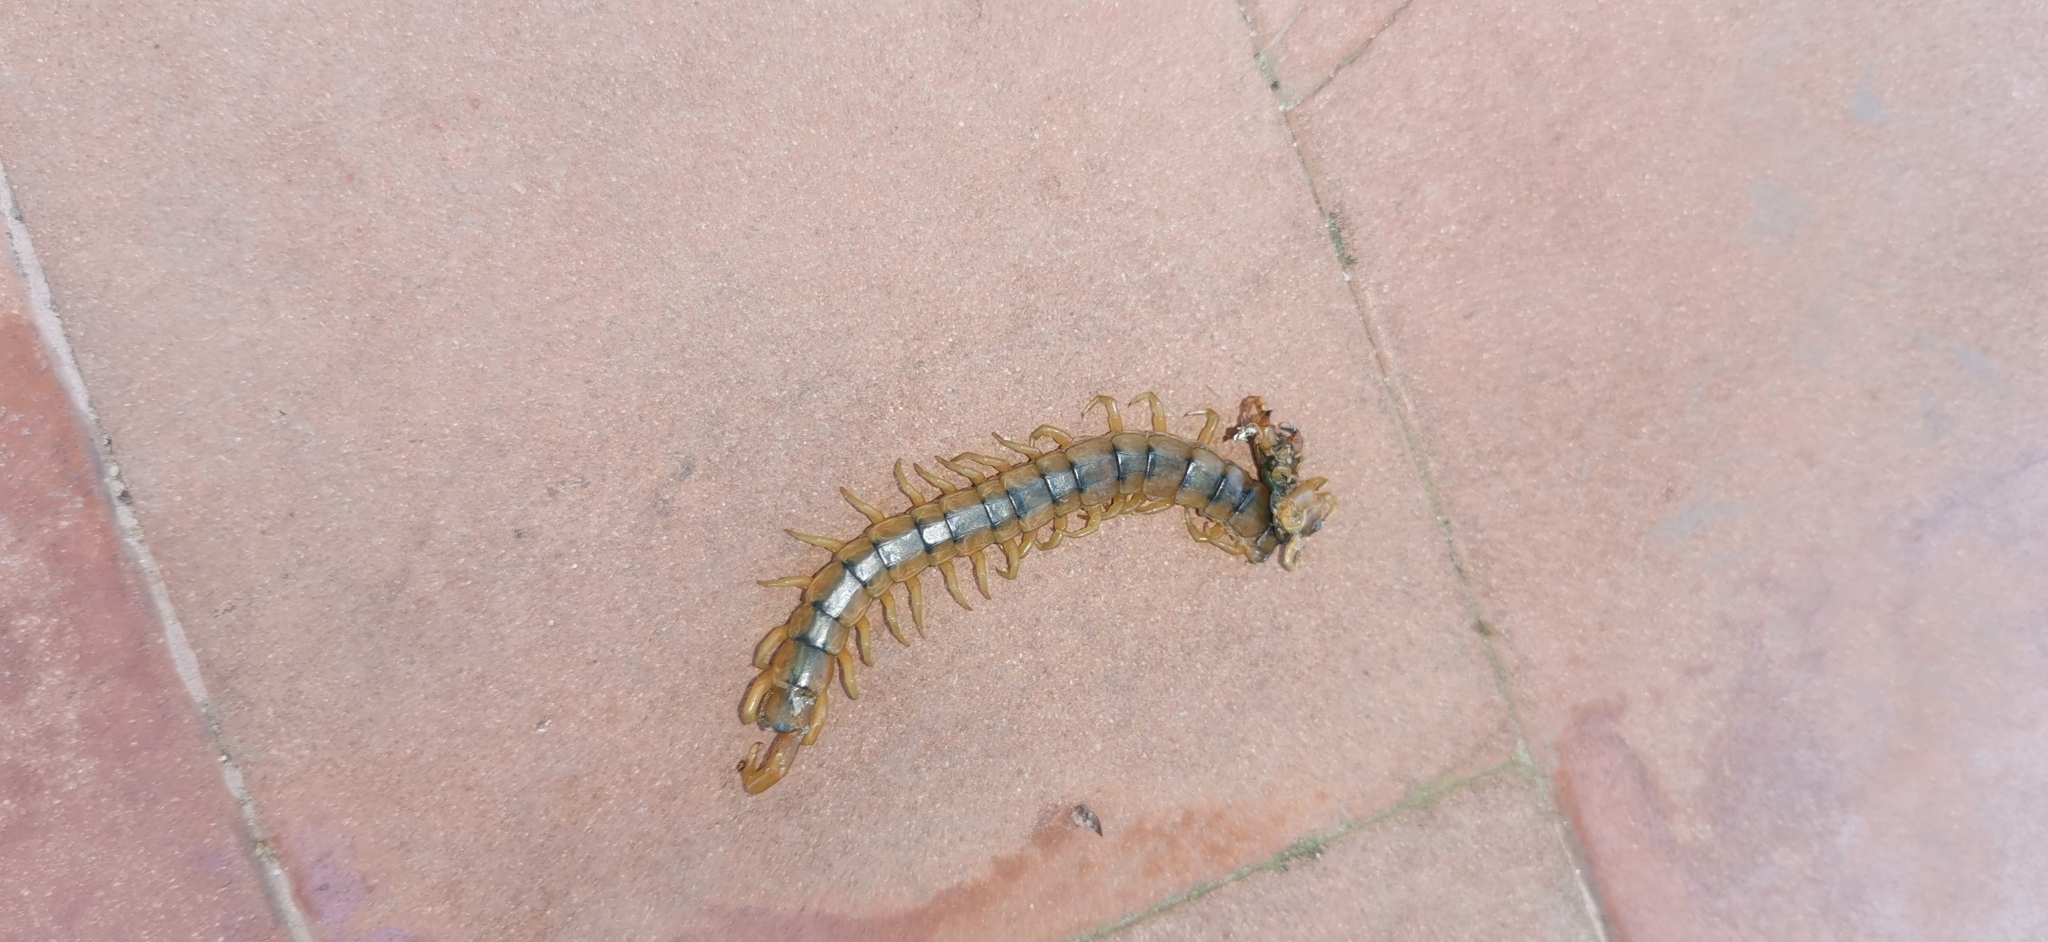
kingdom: Animalia
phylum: Arthropoda
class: Chilopoda
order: Scolopendromorpha
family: Scolopendridae
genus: Scolopendra
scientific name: Scolopendra cingulata
